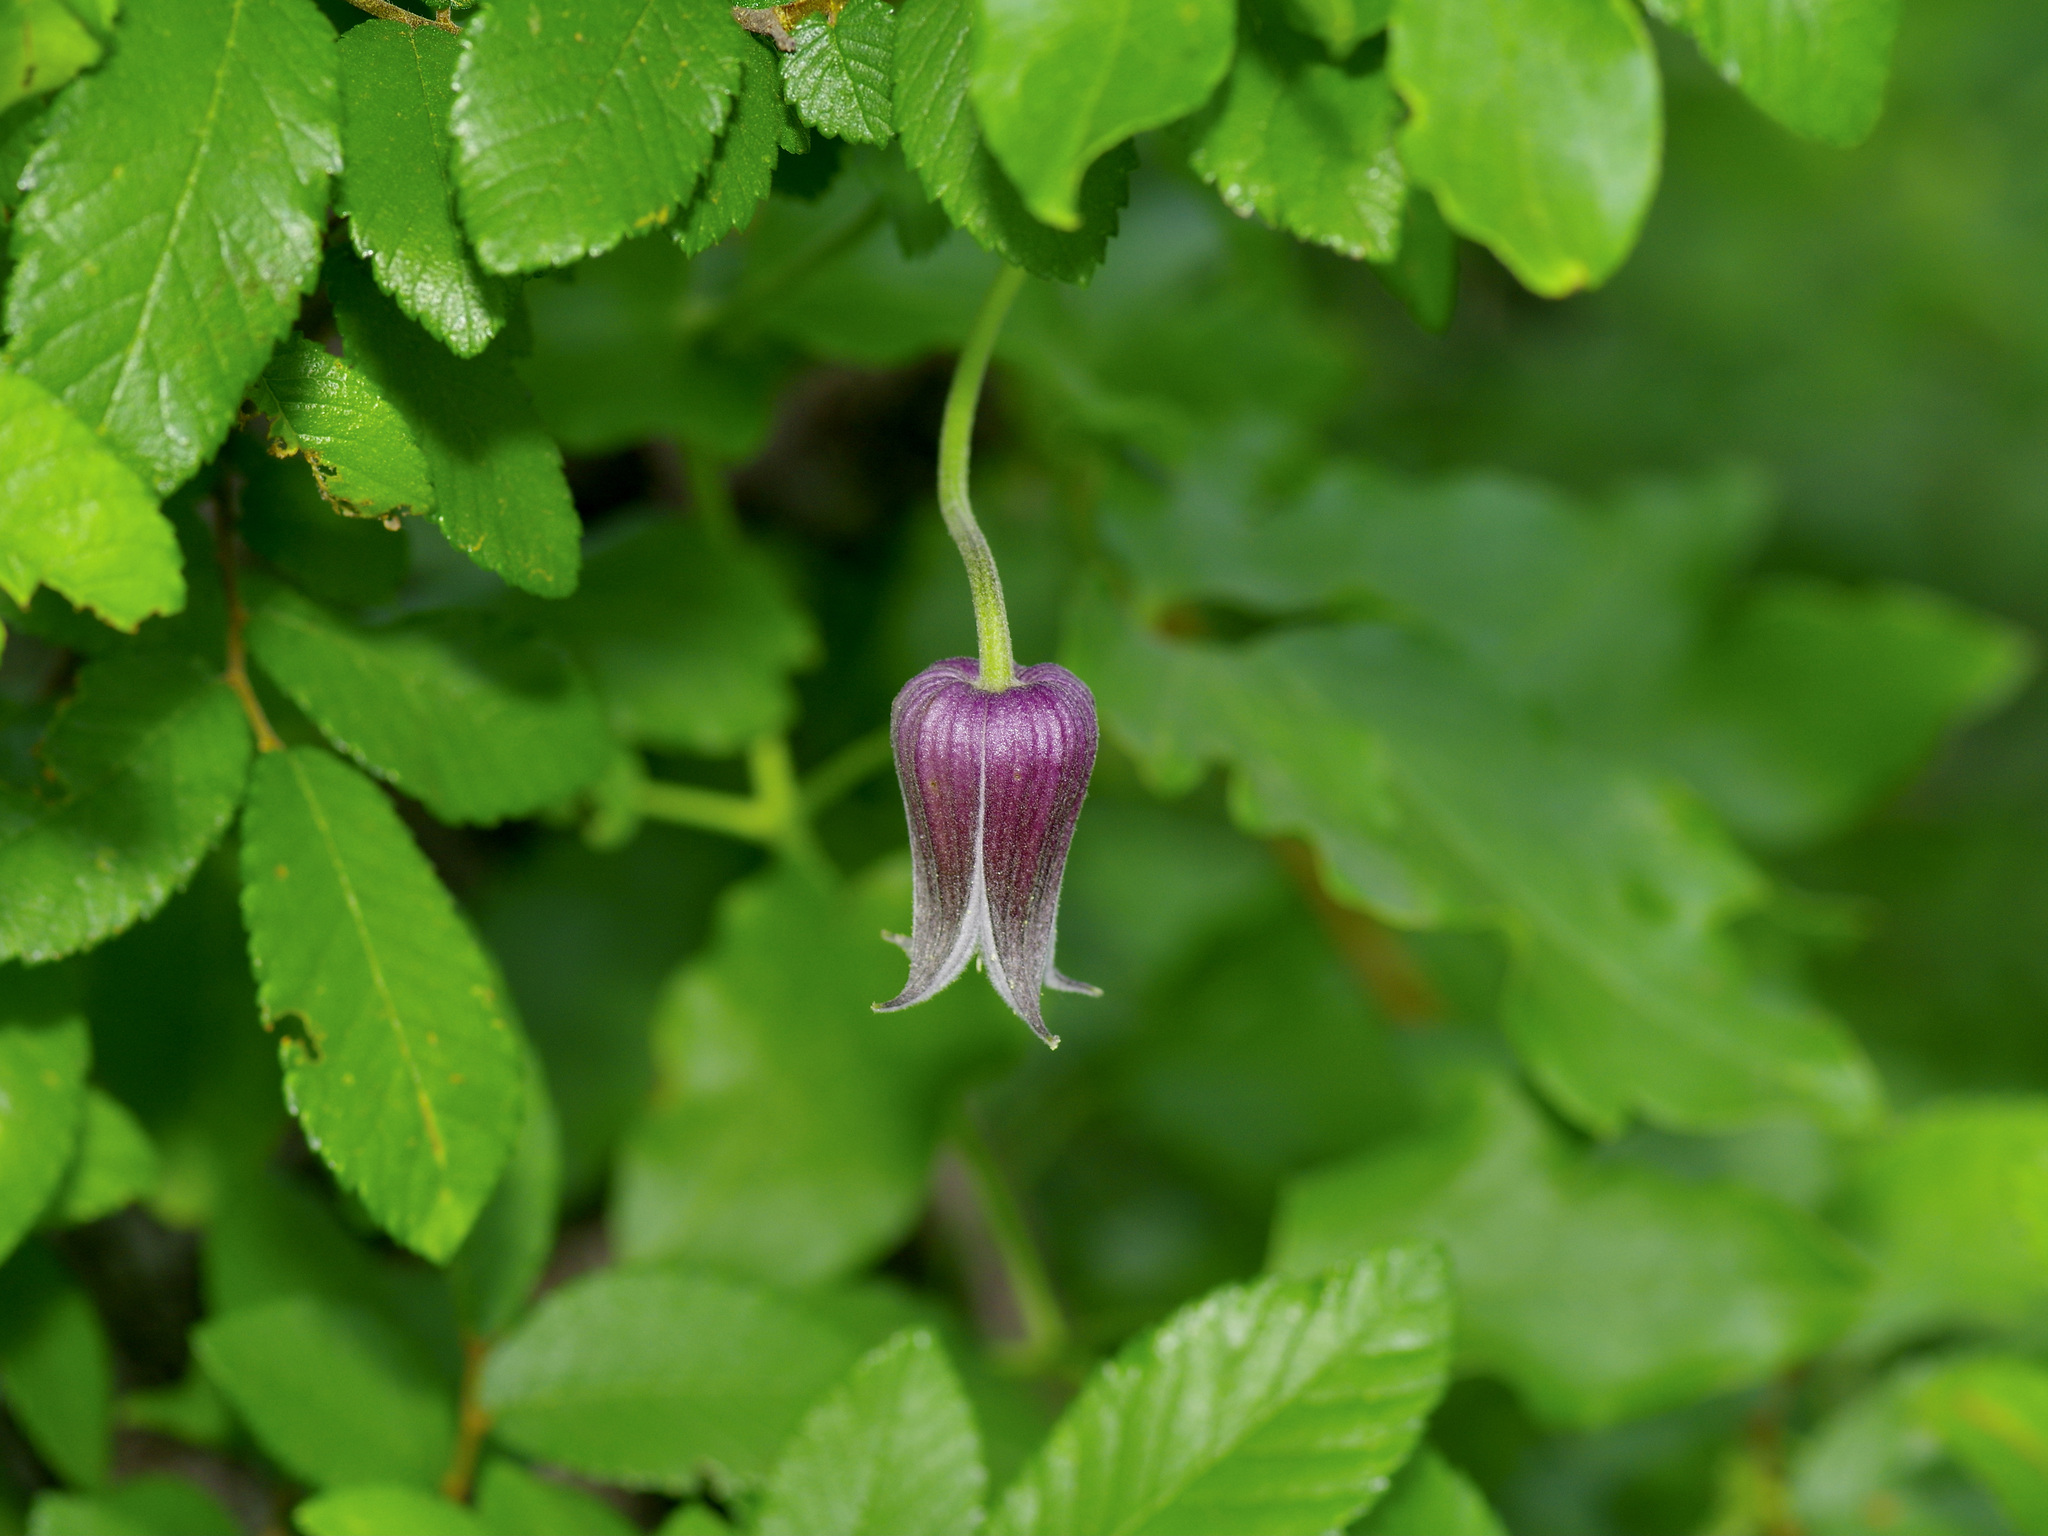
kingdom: Plantae
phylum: Tracheophyta
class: Magnoliopsida
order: Ranunculales
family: Ranunculaceae
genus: Clematis
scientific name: Clematis pitcheri
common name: Bellflower clematis
